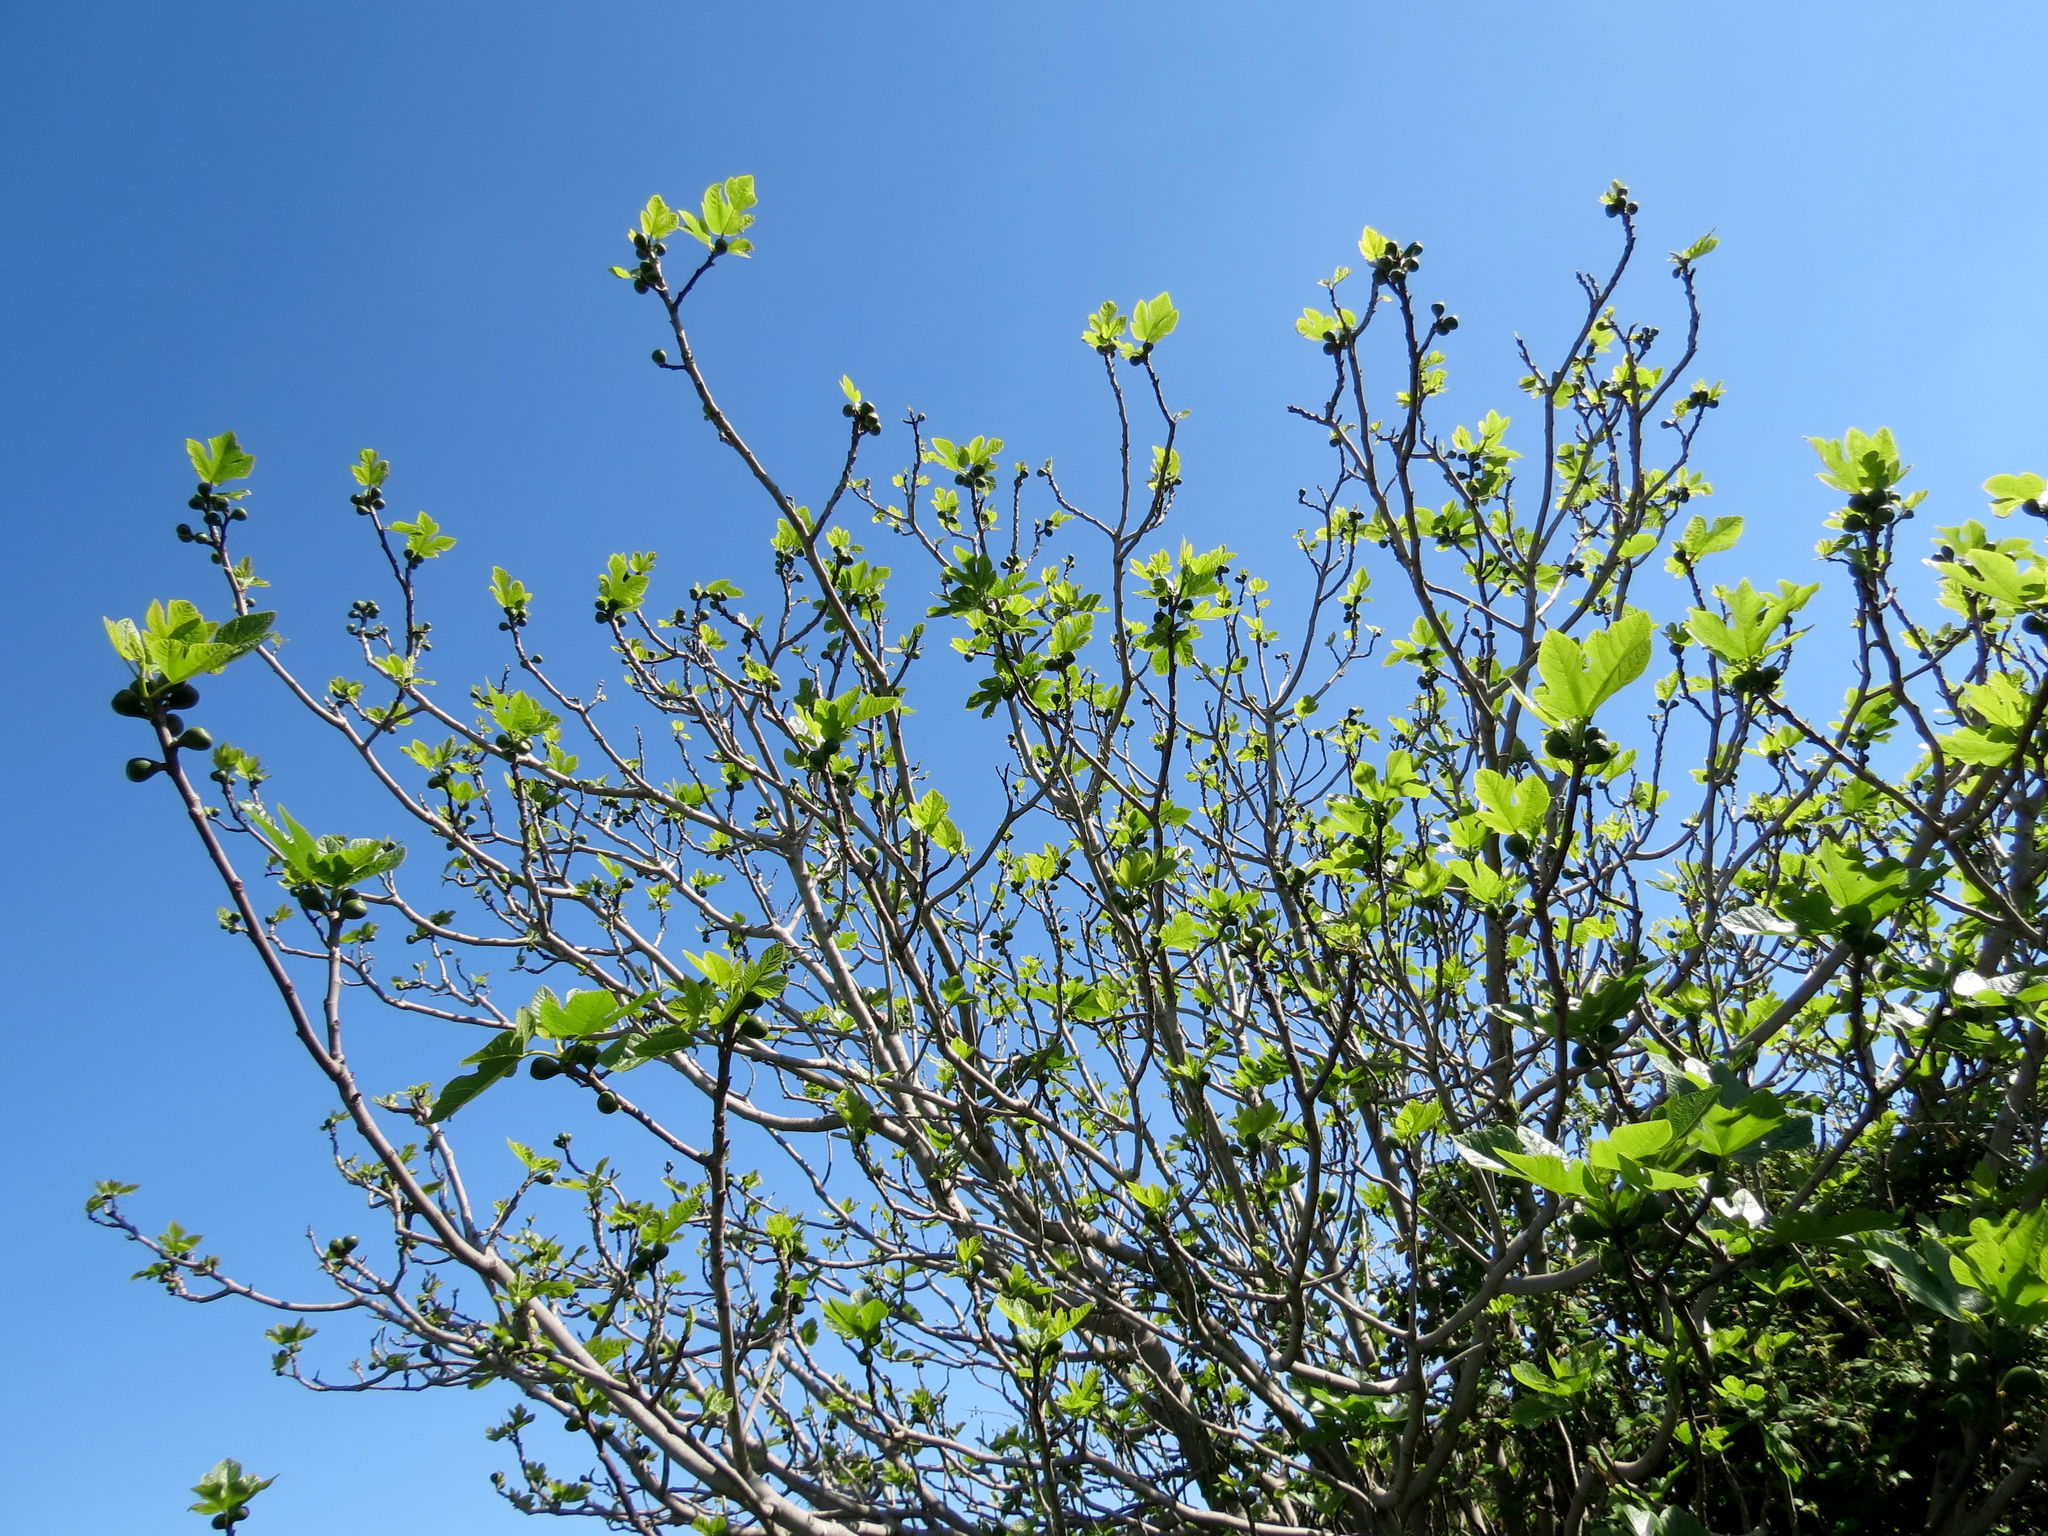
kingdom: Plantae
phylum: Tracheophyta
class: Magnoliopsida
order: Rosales
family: Moraceae
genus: Ficus
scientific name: Ficus carica
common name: Fig
